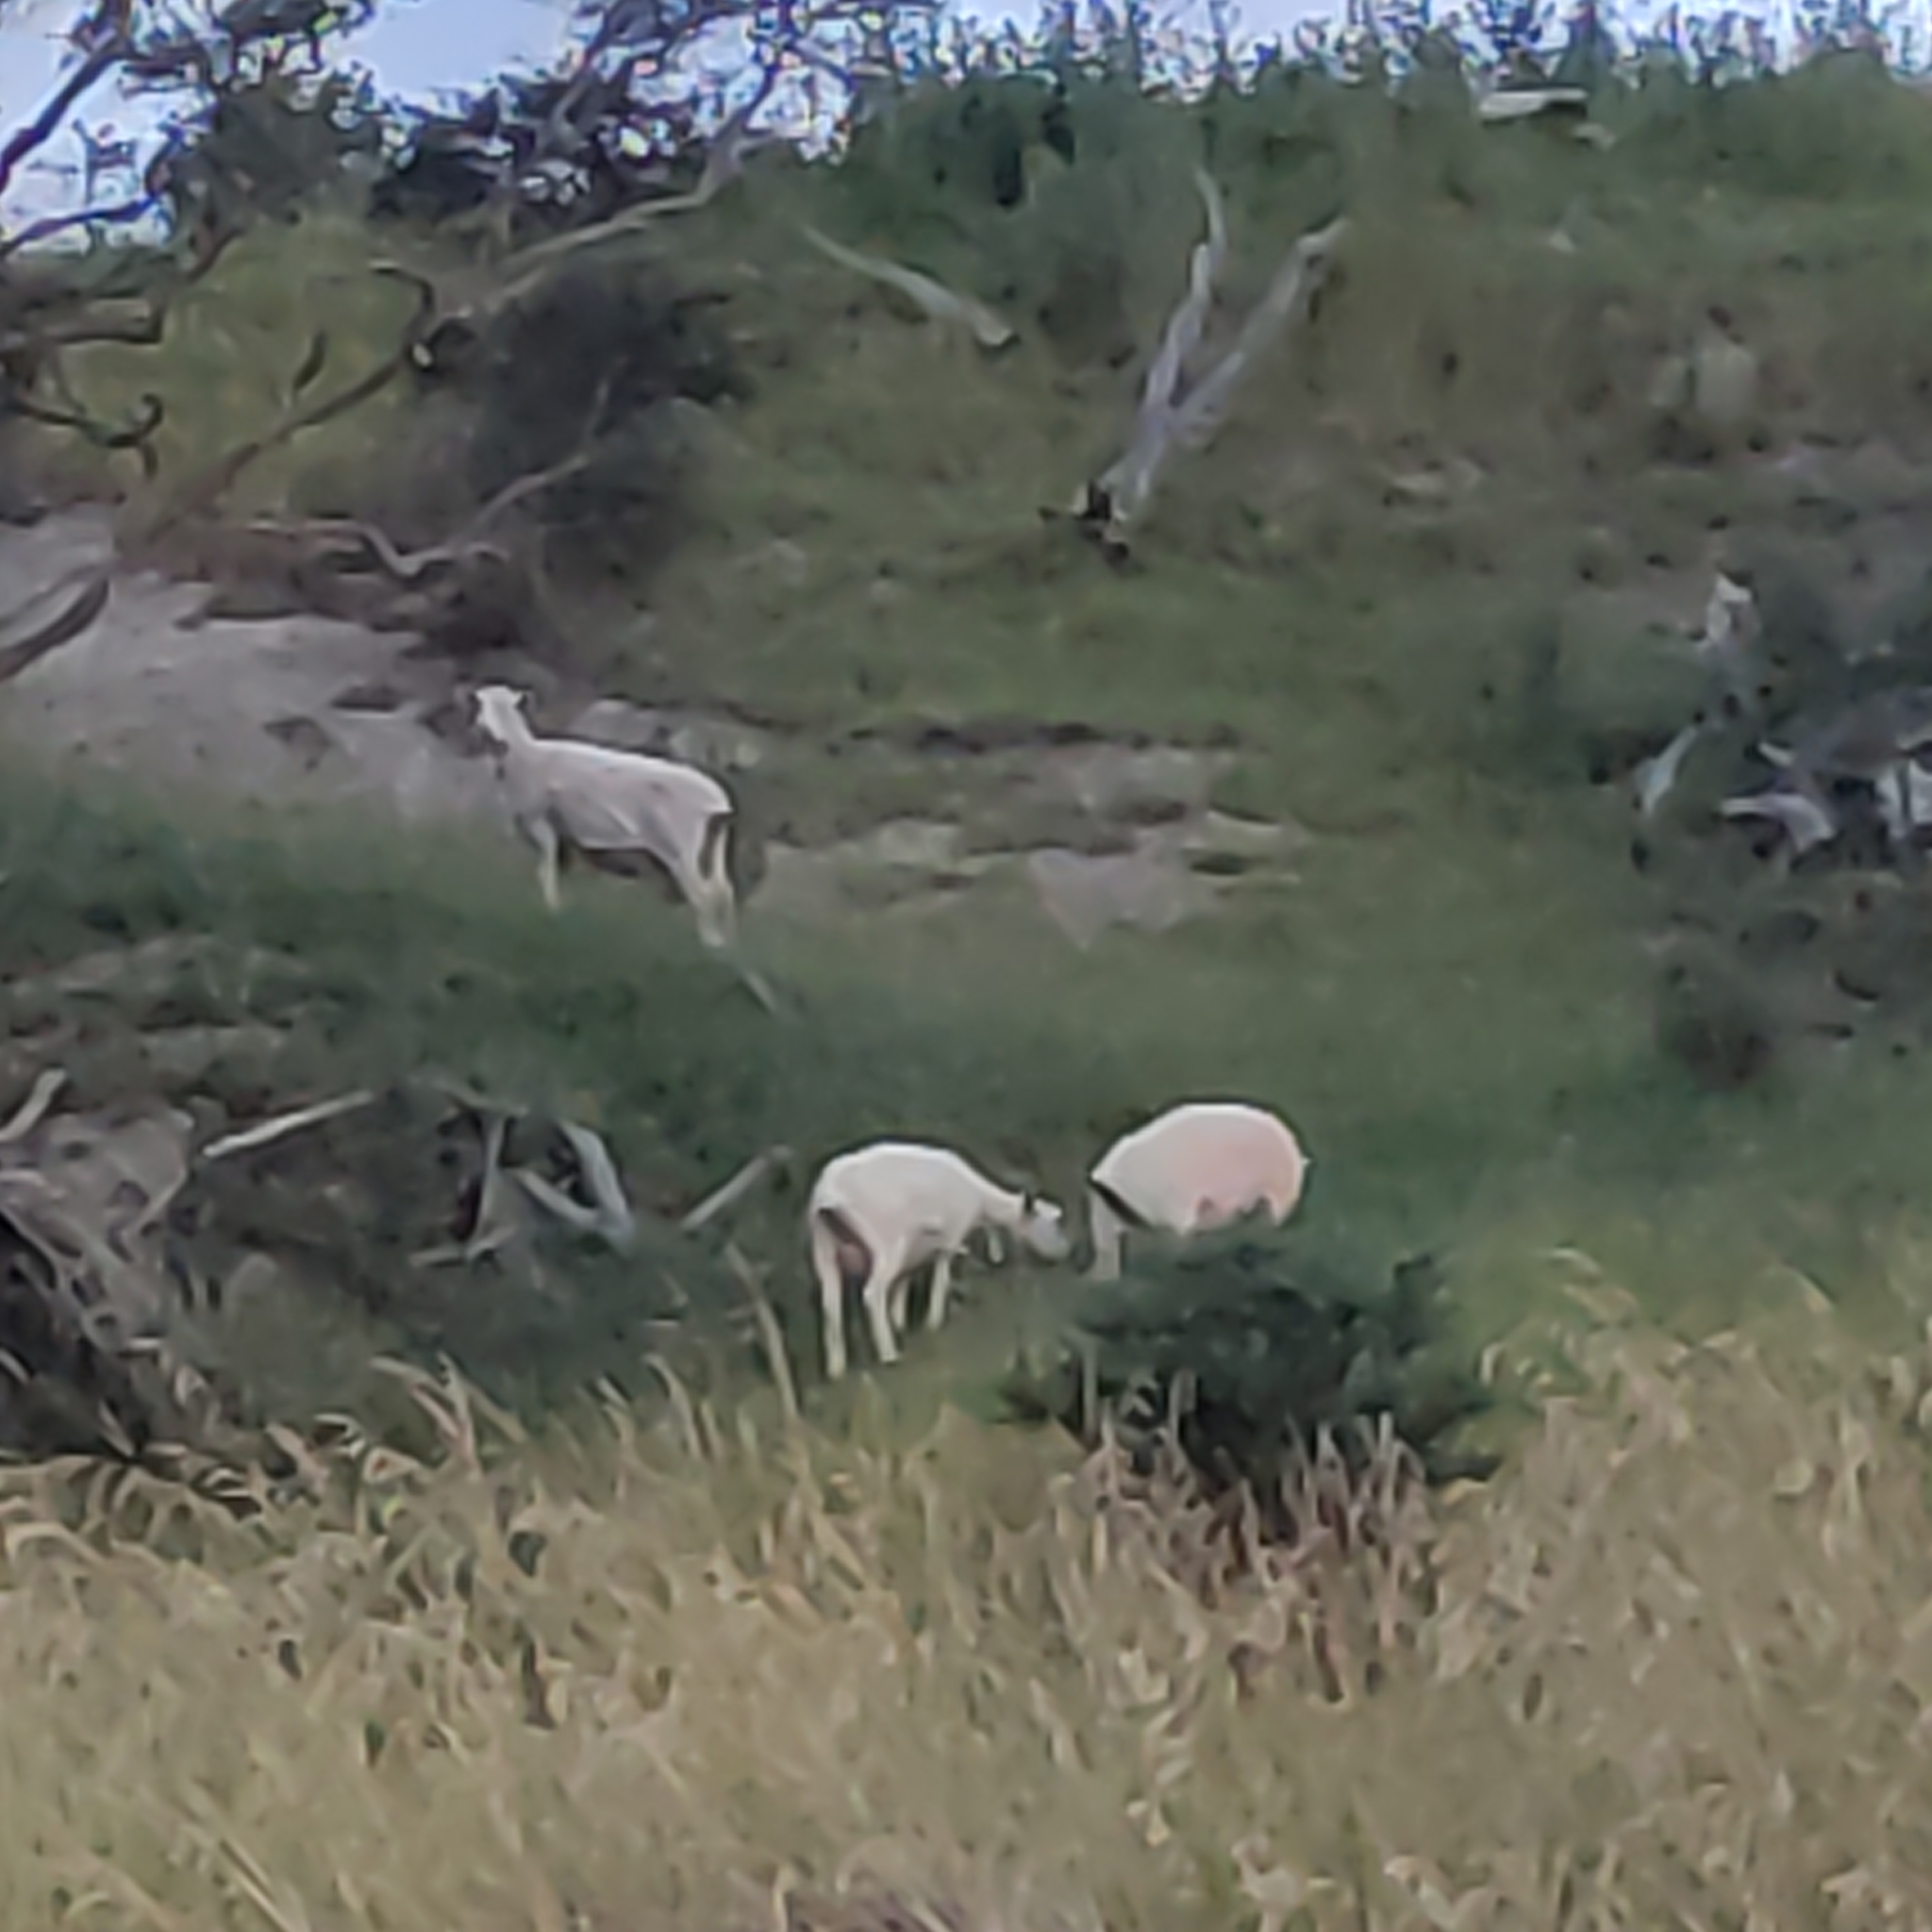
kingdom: Animalia
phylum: Chordata
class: Mammalia
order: Artiodactyla
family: Bovidae
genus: Ovis
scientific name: Ovis aries
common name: Domestic sheep
